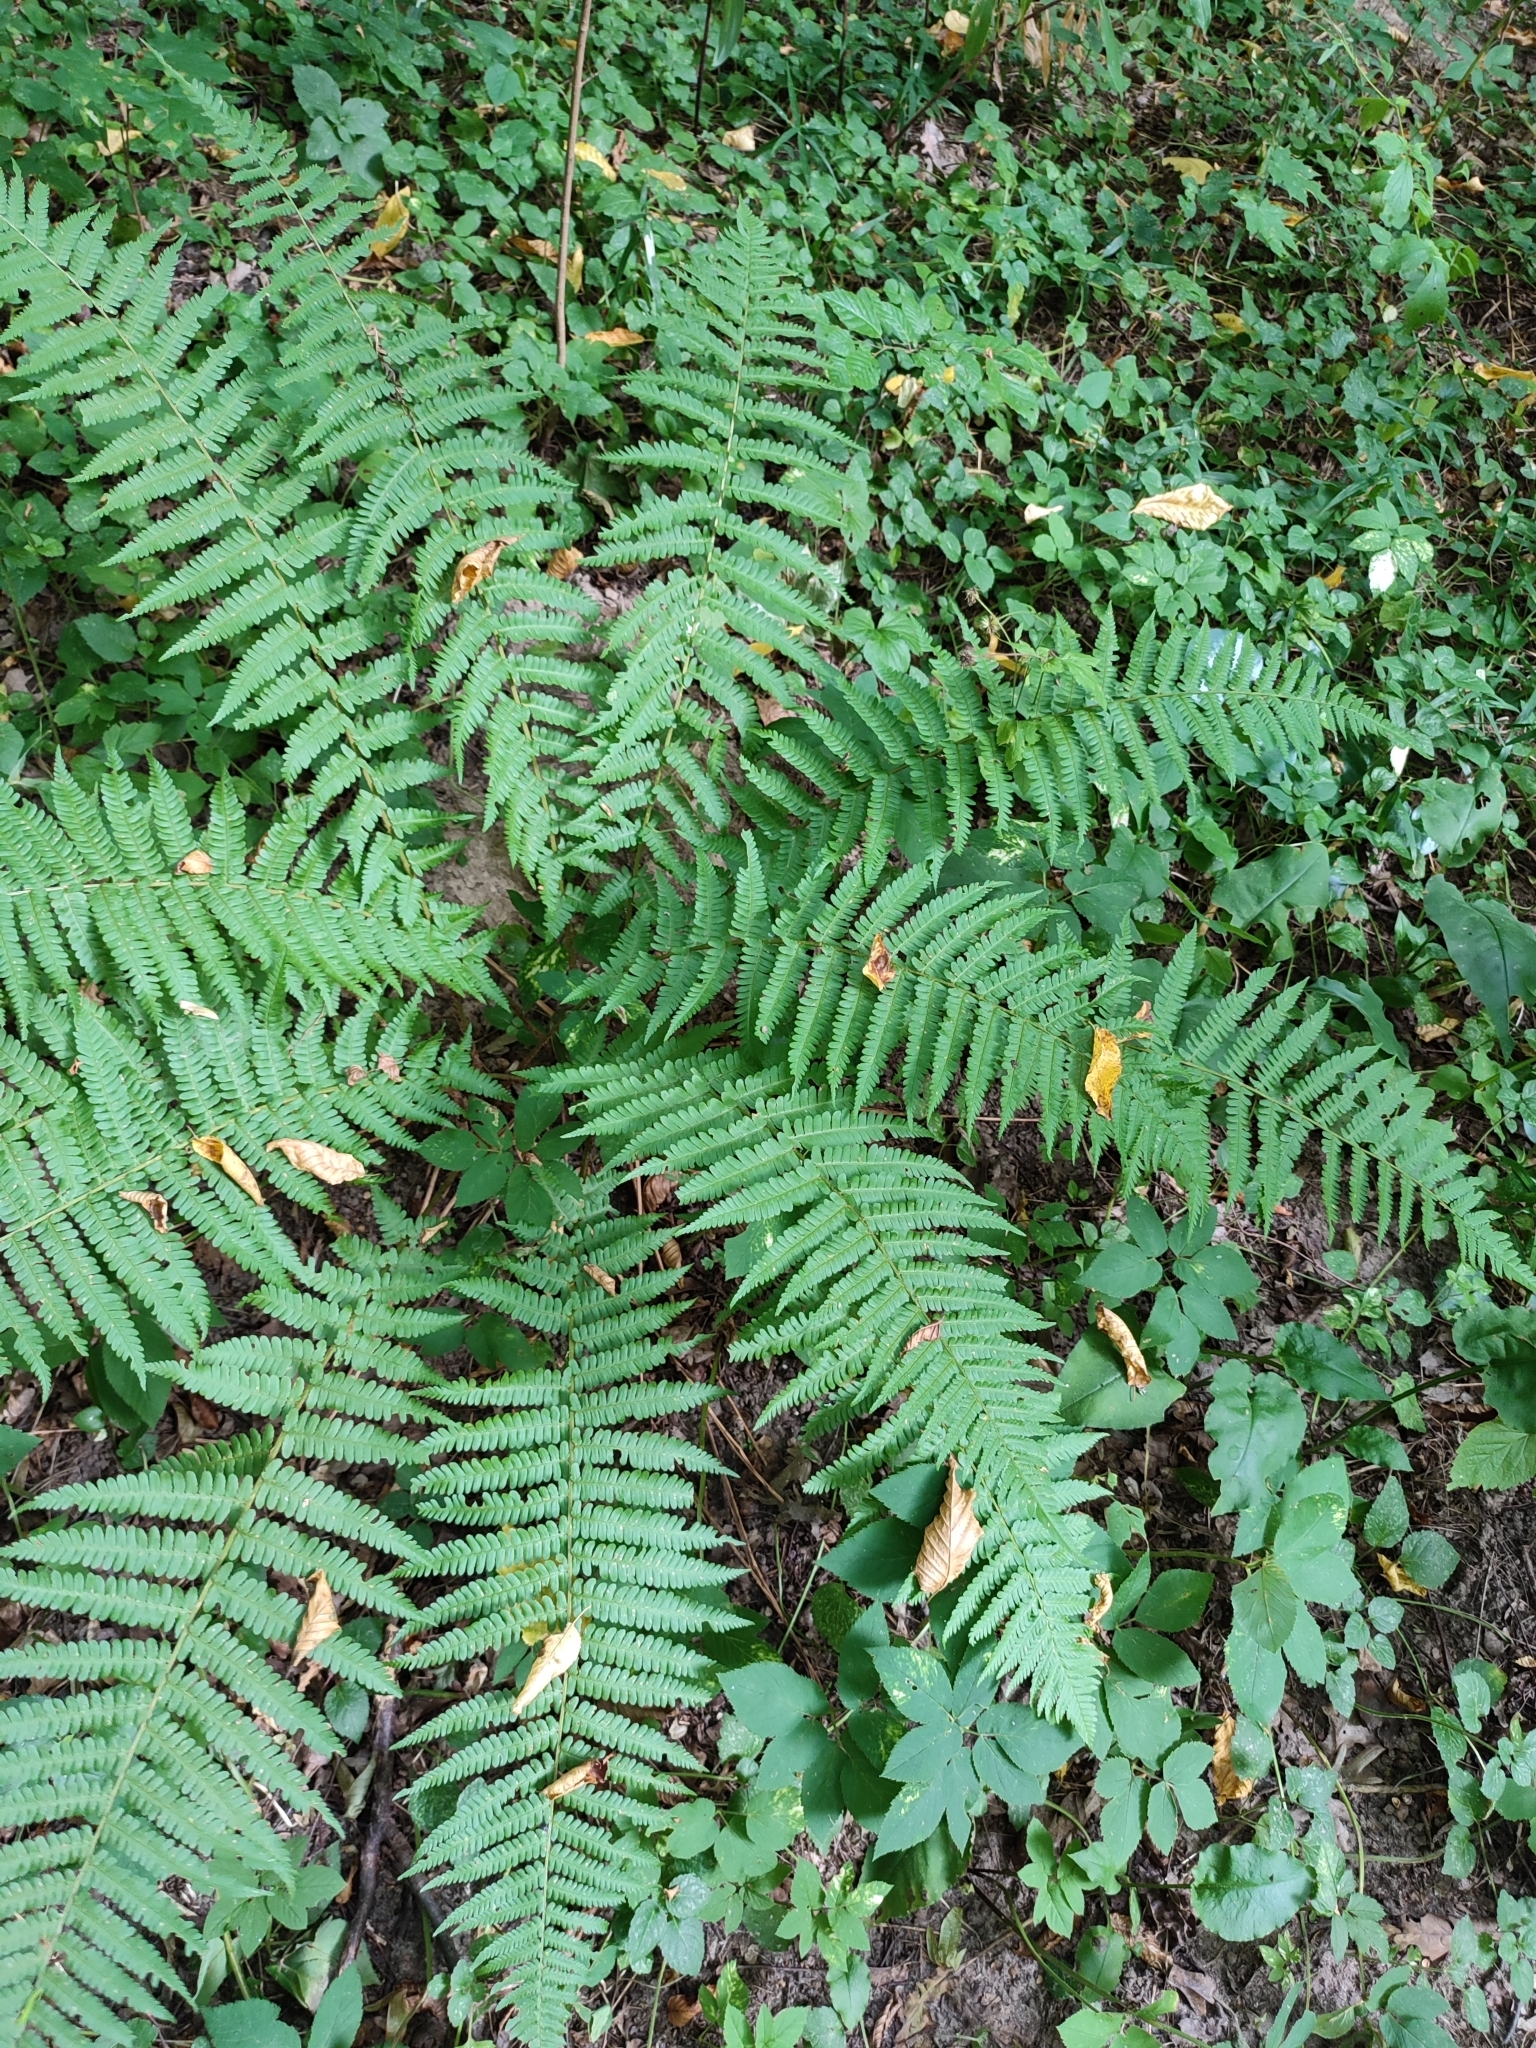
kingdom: Plantae
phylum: Tracheophyta
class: Polypodiopsida
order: Polypodiales
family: Dryopteridaceae
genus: Dryopteris
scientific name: Dryopteris filix-mas
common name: Male fern
